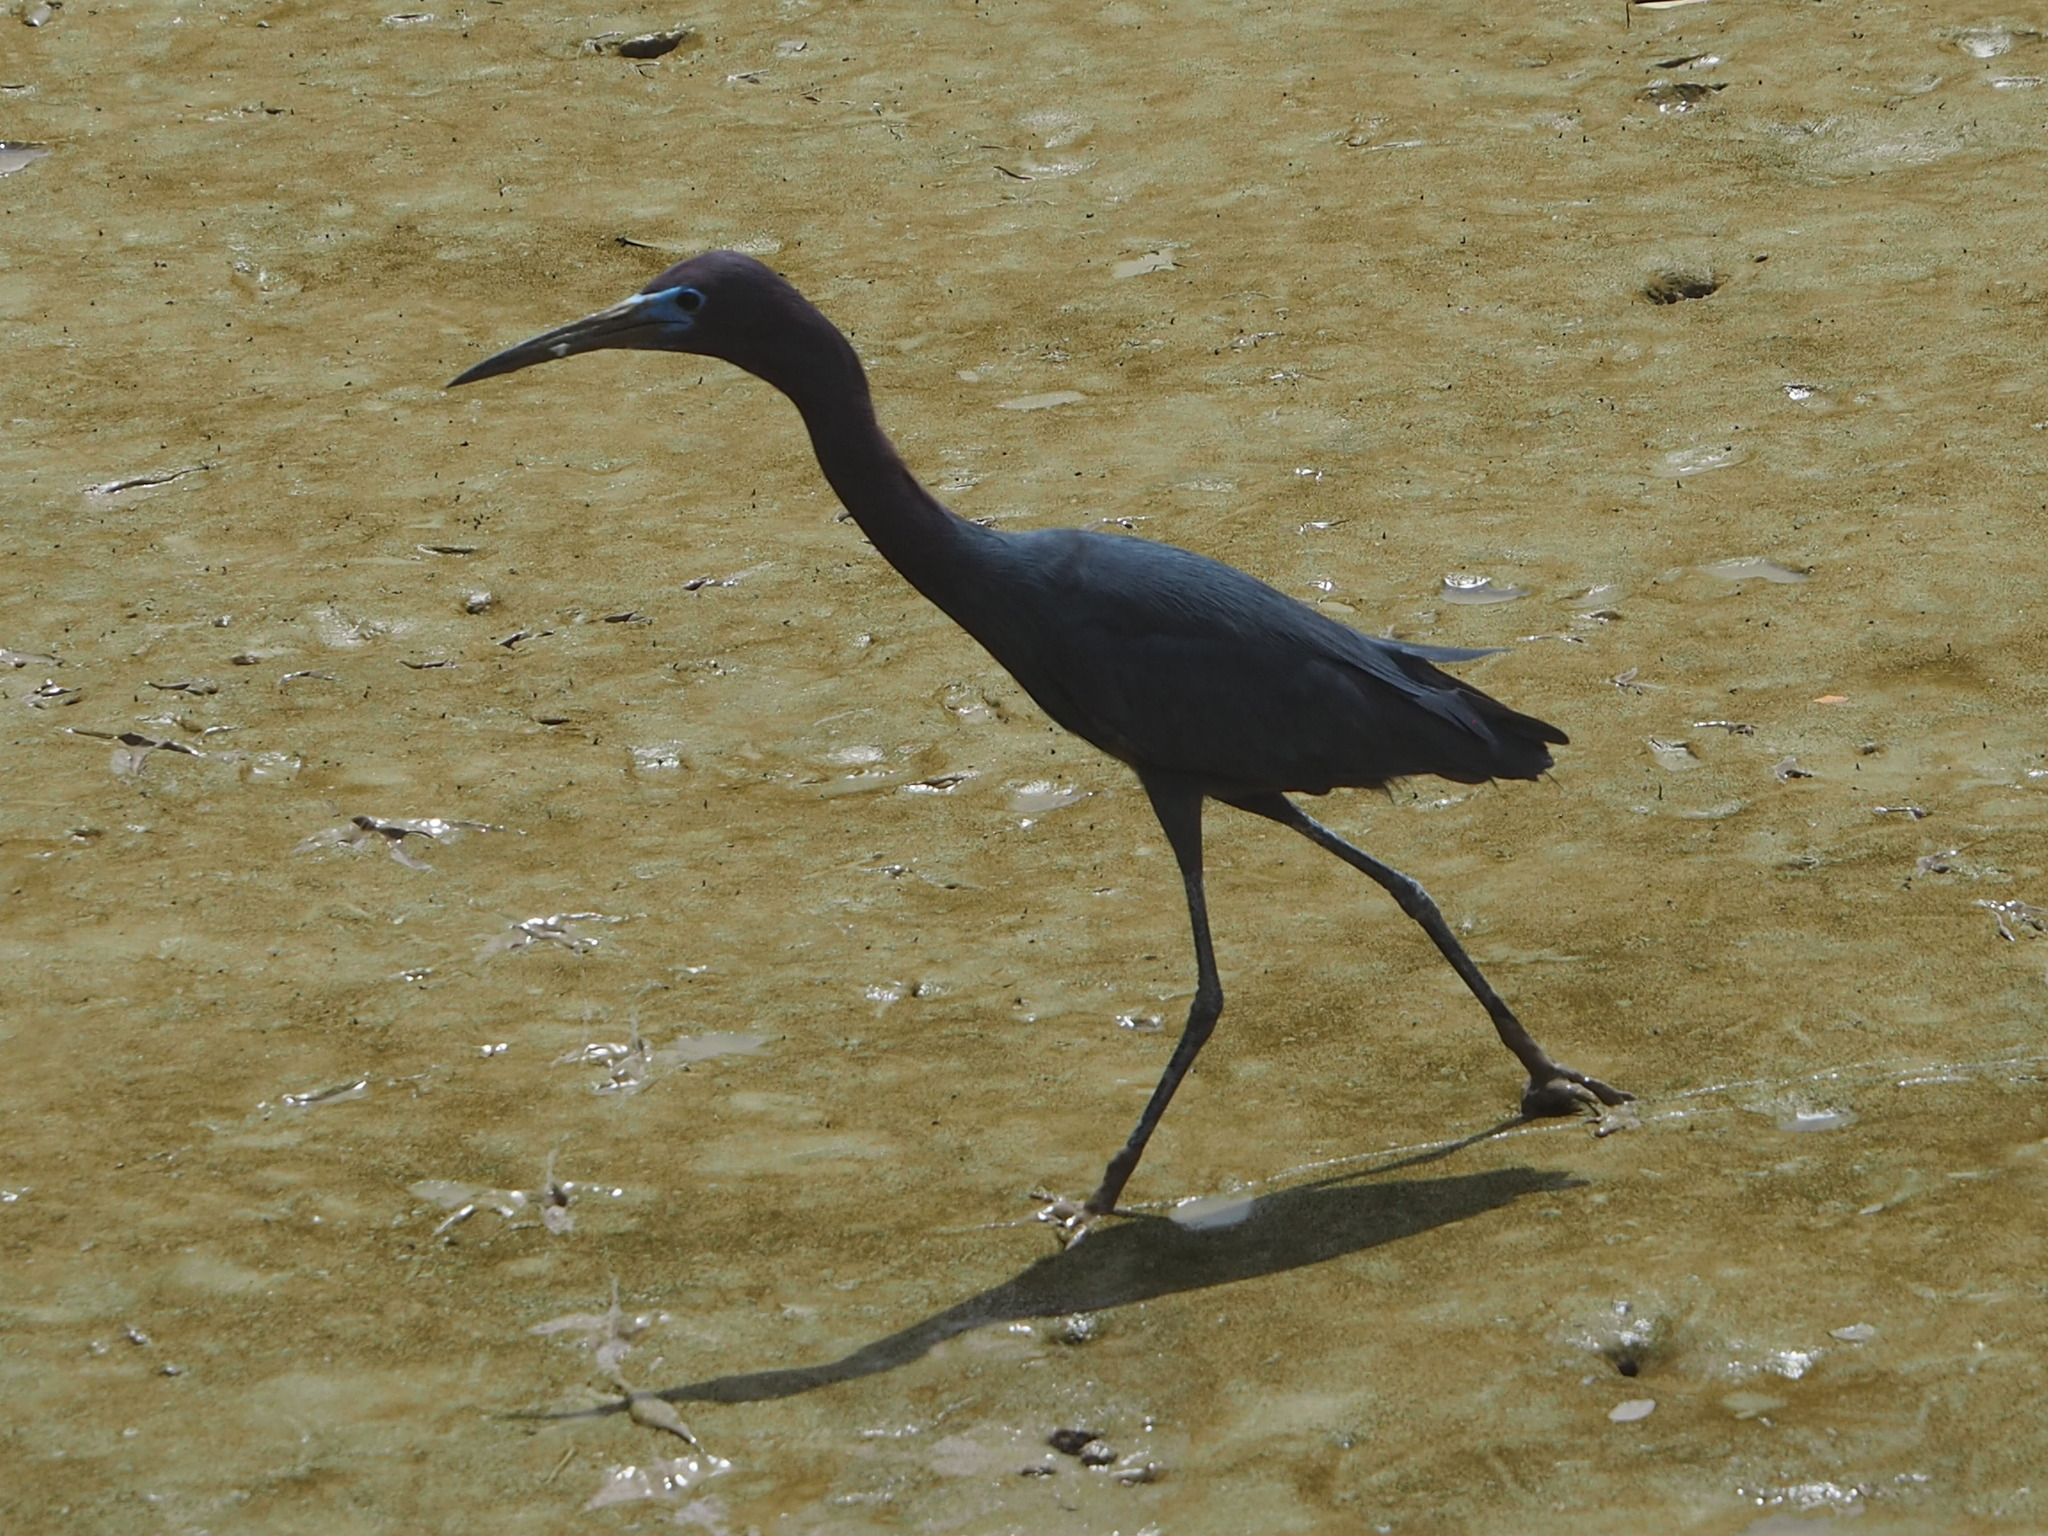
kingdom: Animalia
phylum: Chordata
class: Aves
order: Pelecaniformes
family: Ardeidae
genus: Egretta
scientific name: Egretta caerulea
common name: Little blue heron
